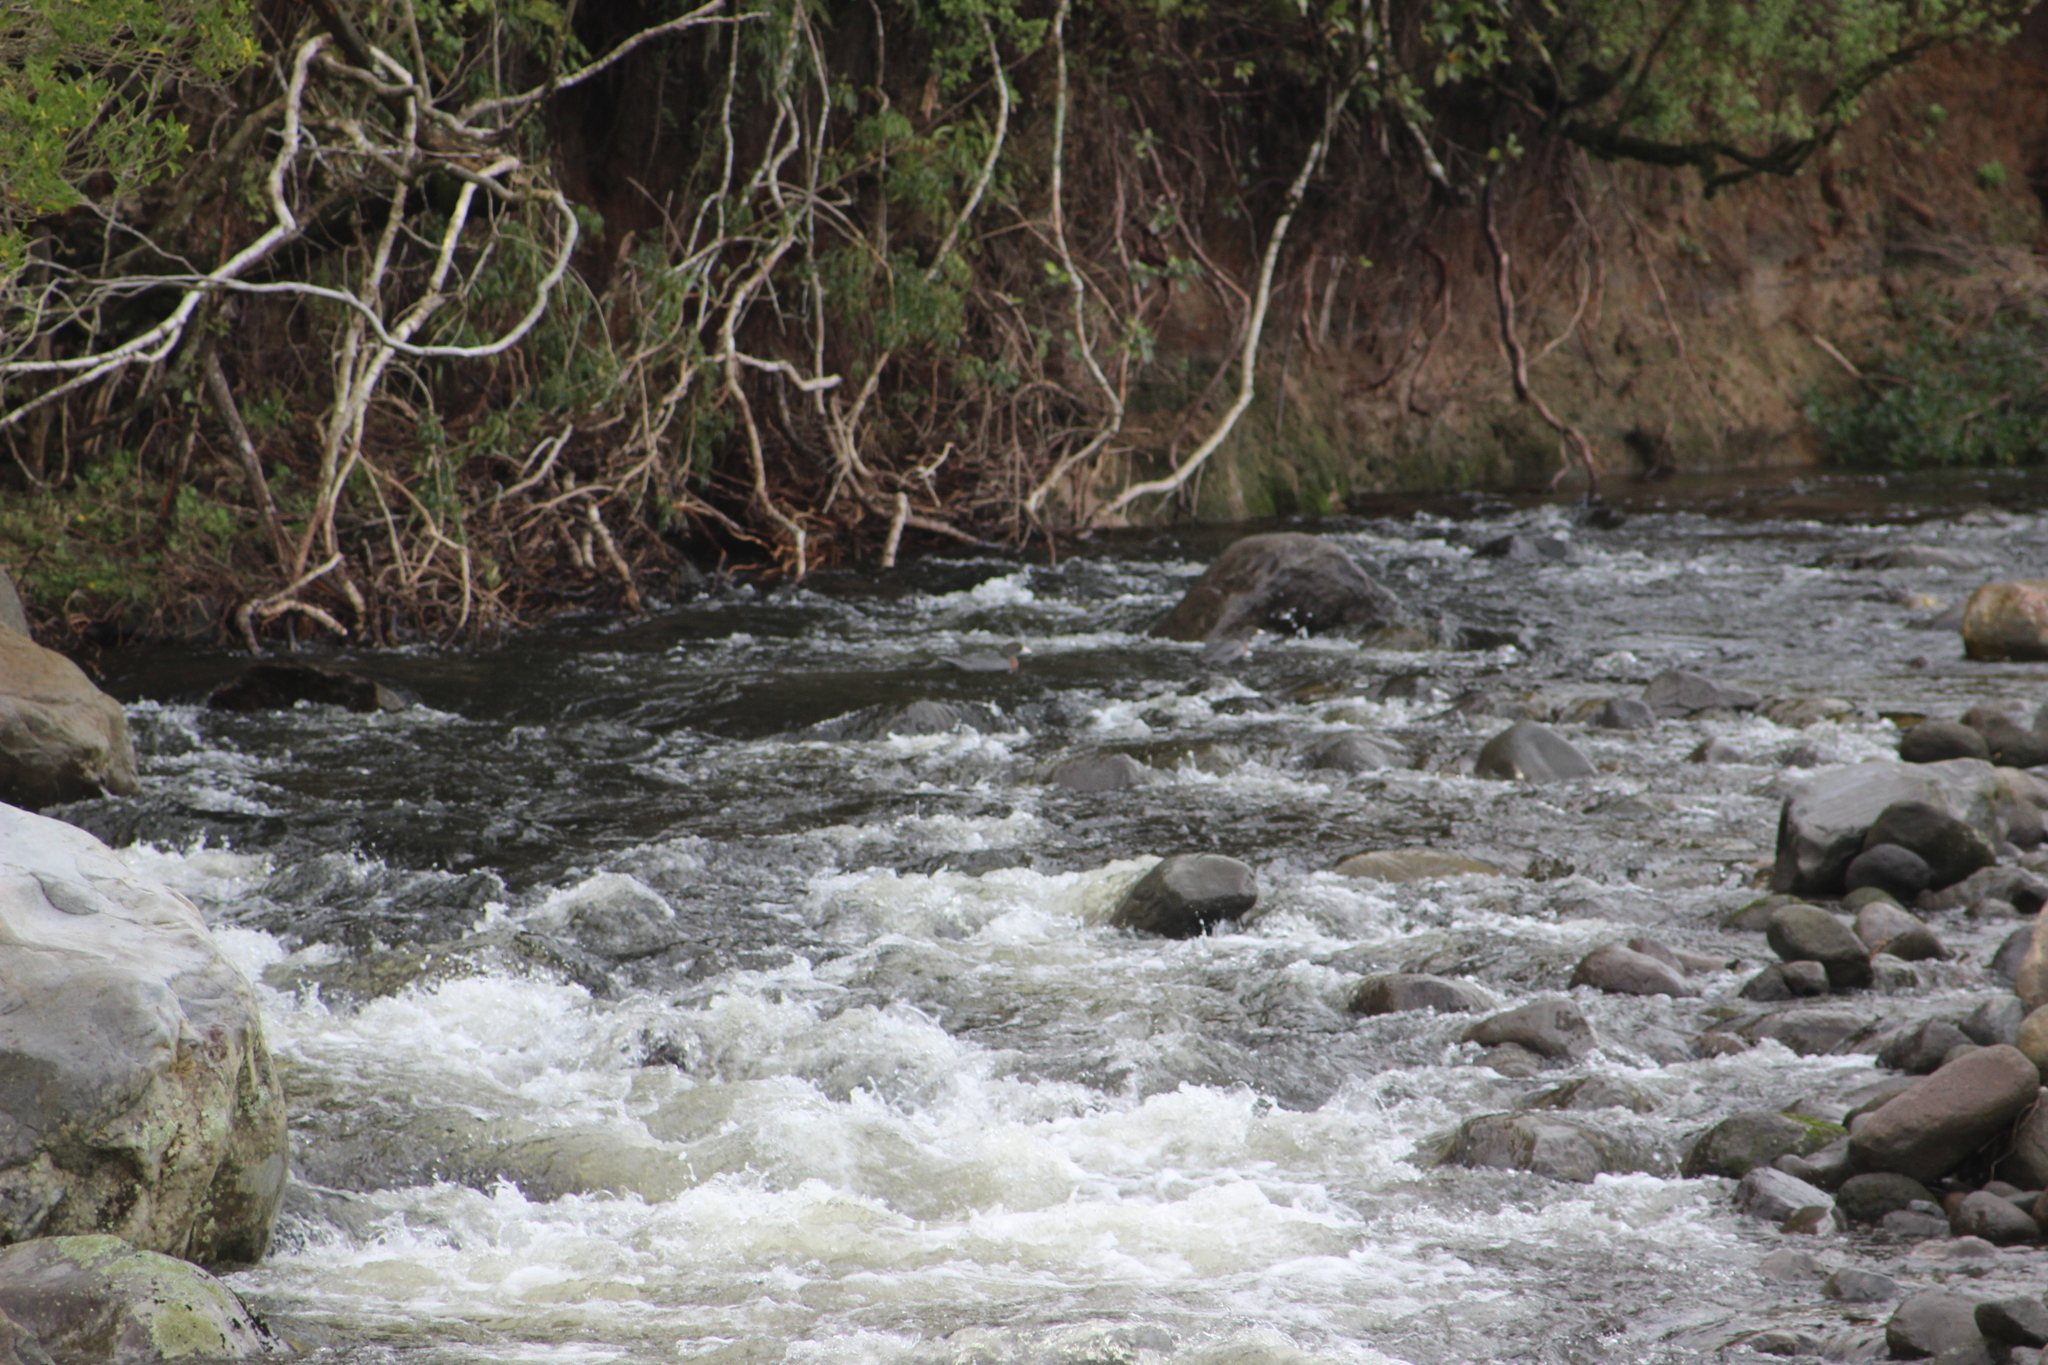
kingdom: Animalia
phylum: Chordata
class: Aves
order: Anseriformes
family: Anatidae
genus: Hymenolaimus
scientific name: Hymenolaimus malacorhynchos
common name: Blue duck
